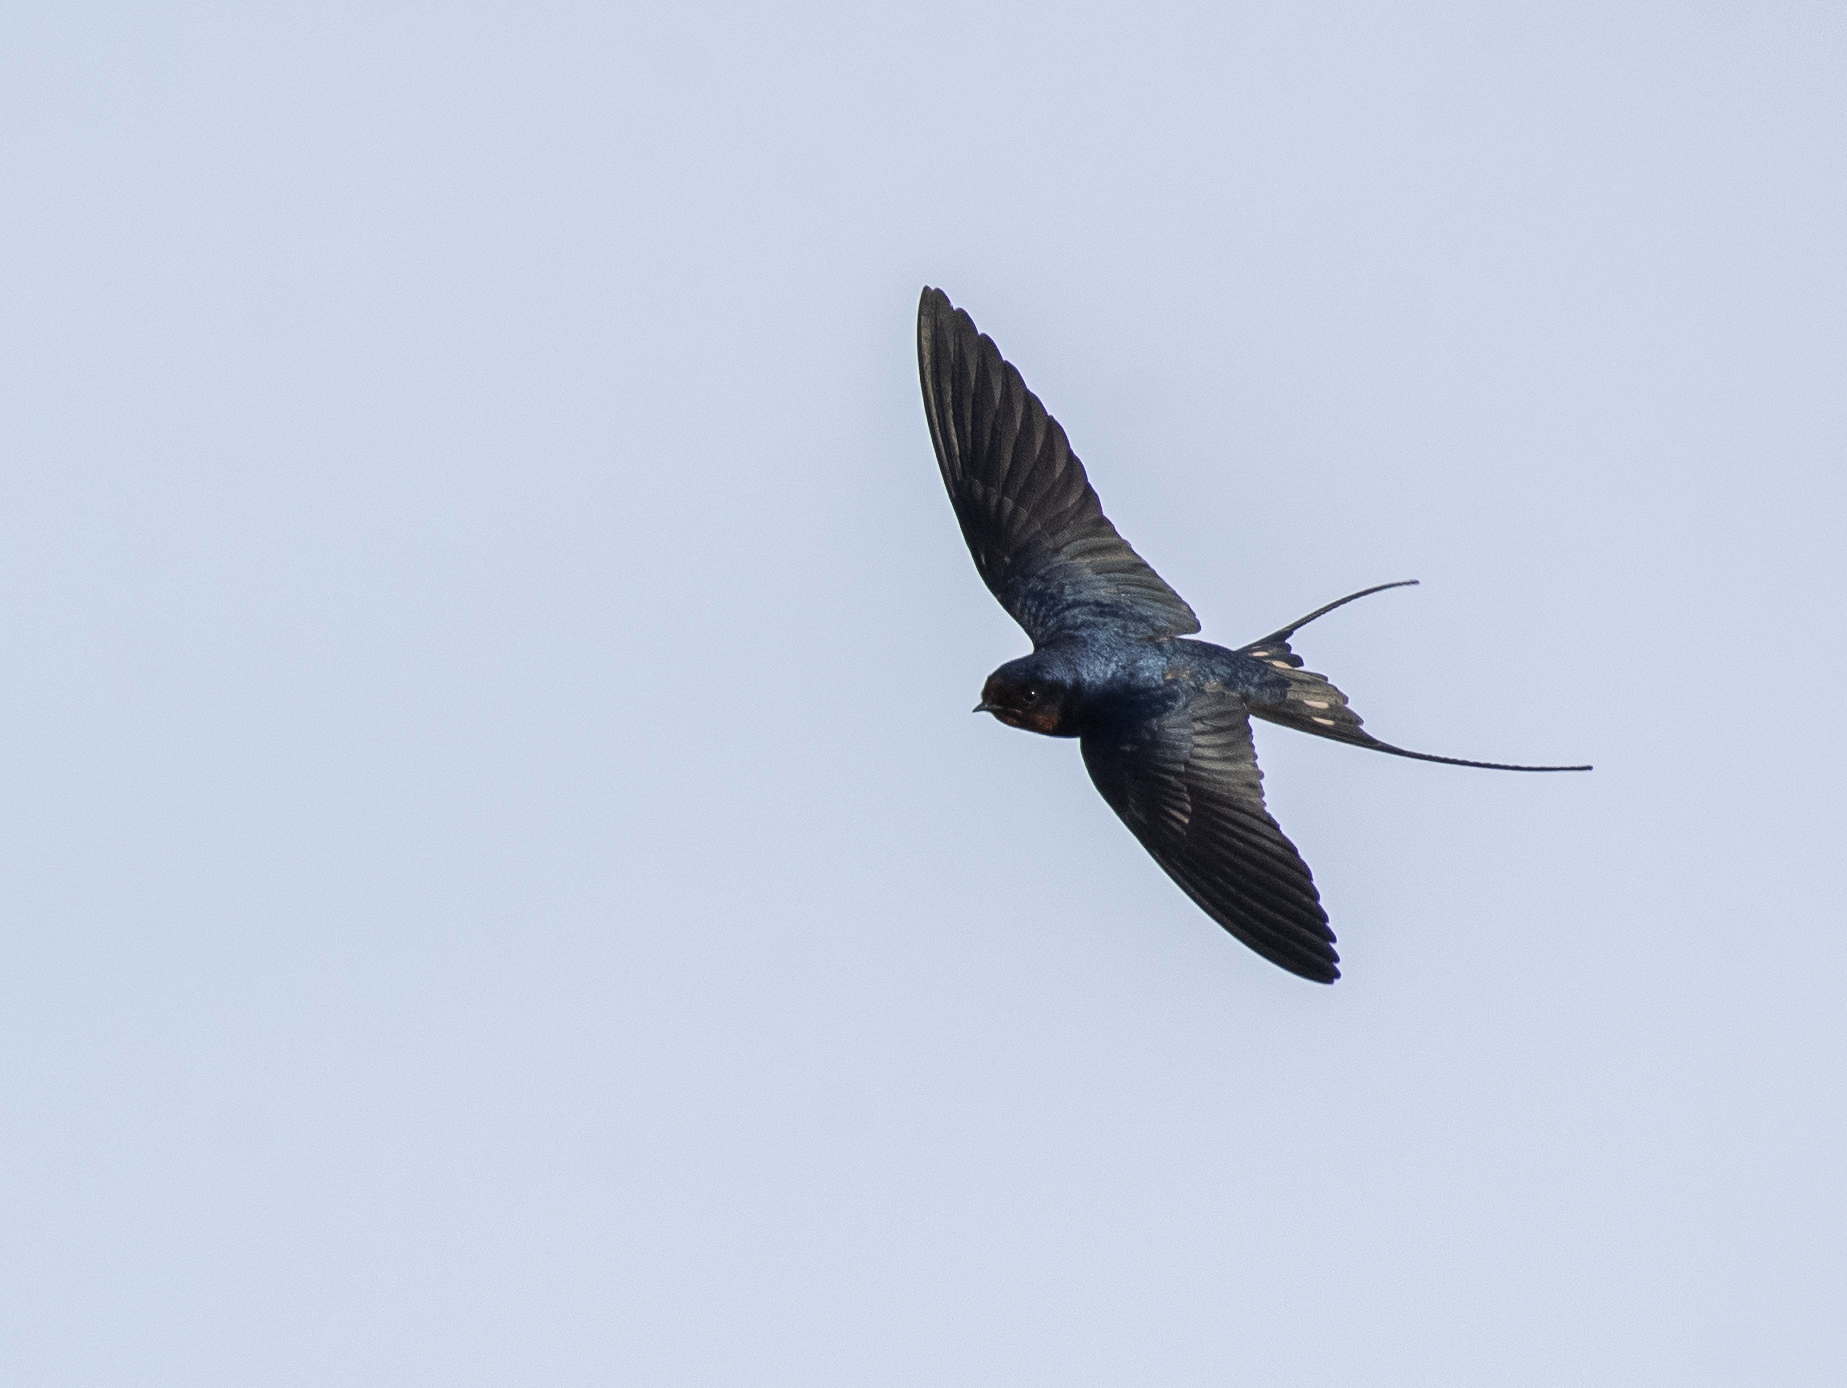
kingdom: Animalia
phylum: Chordata
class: Aves
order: Passeriformes
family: Hirundinidae
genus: Hirundo
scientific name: Hirundo rustica
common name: Barn swallow
